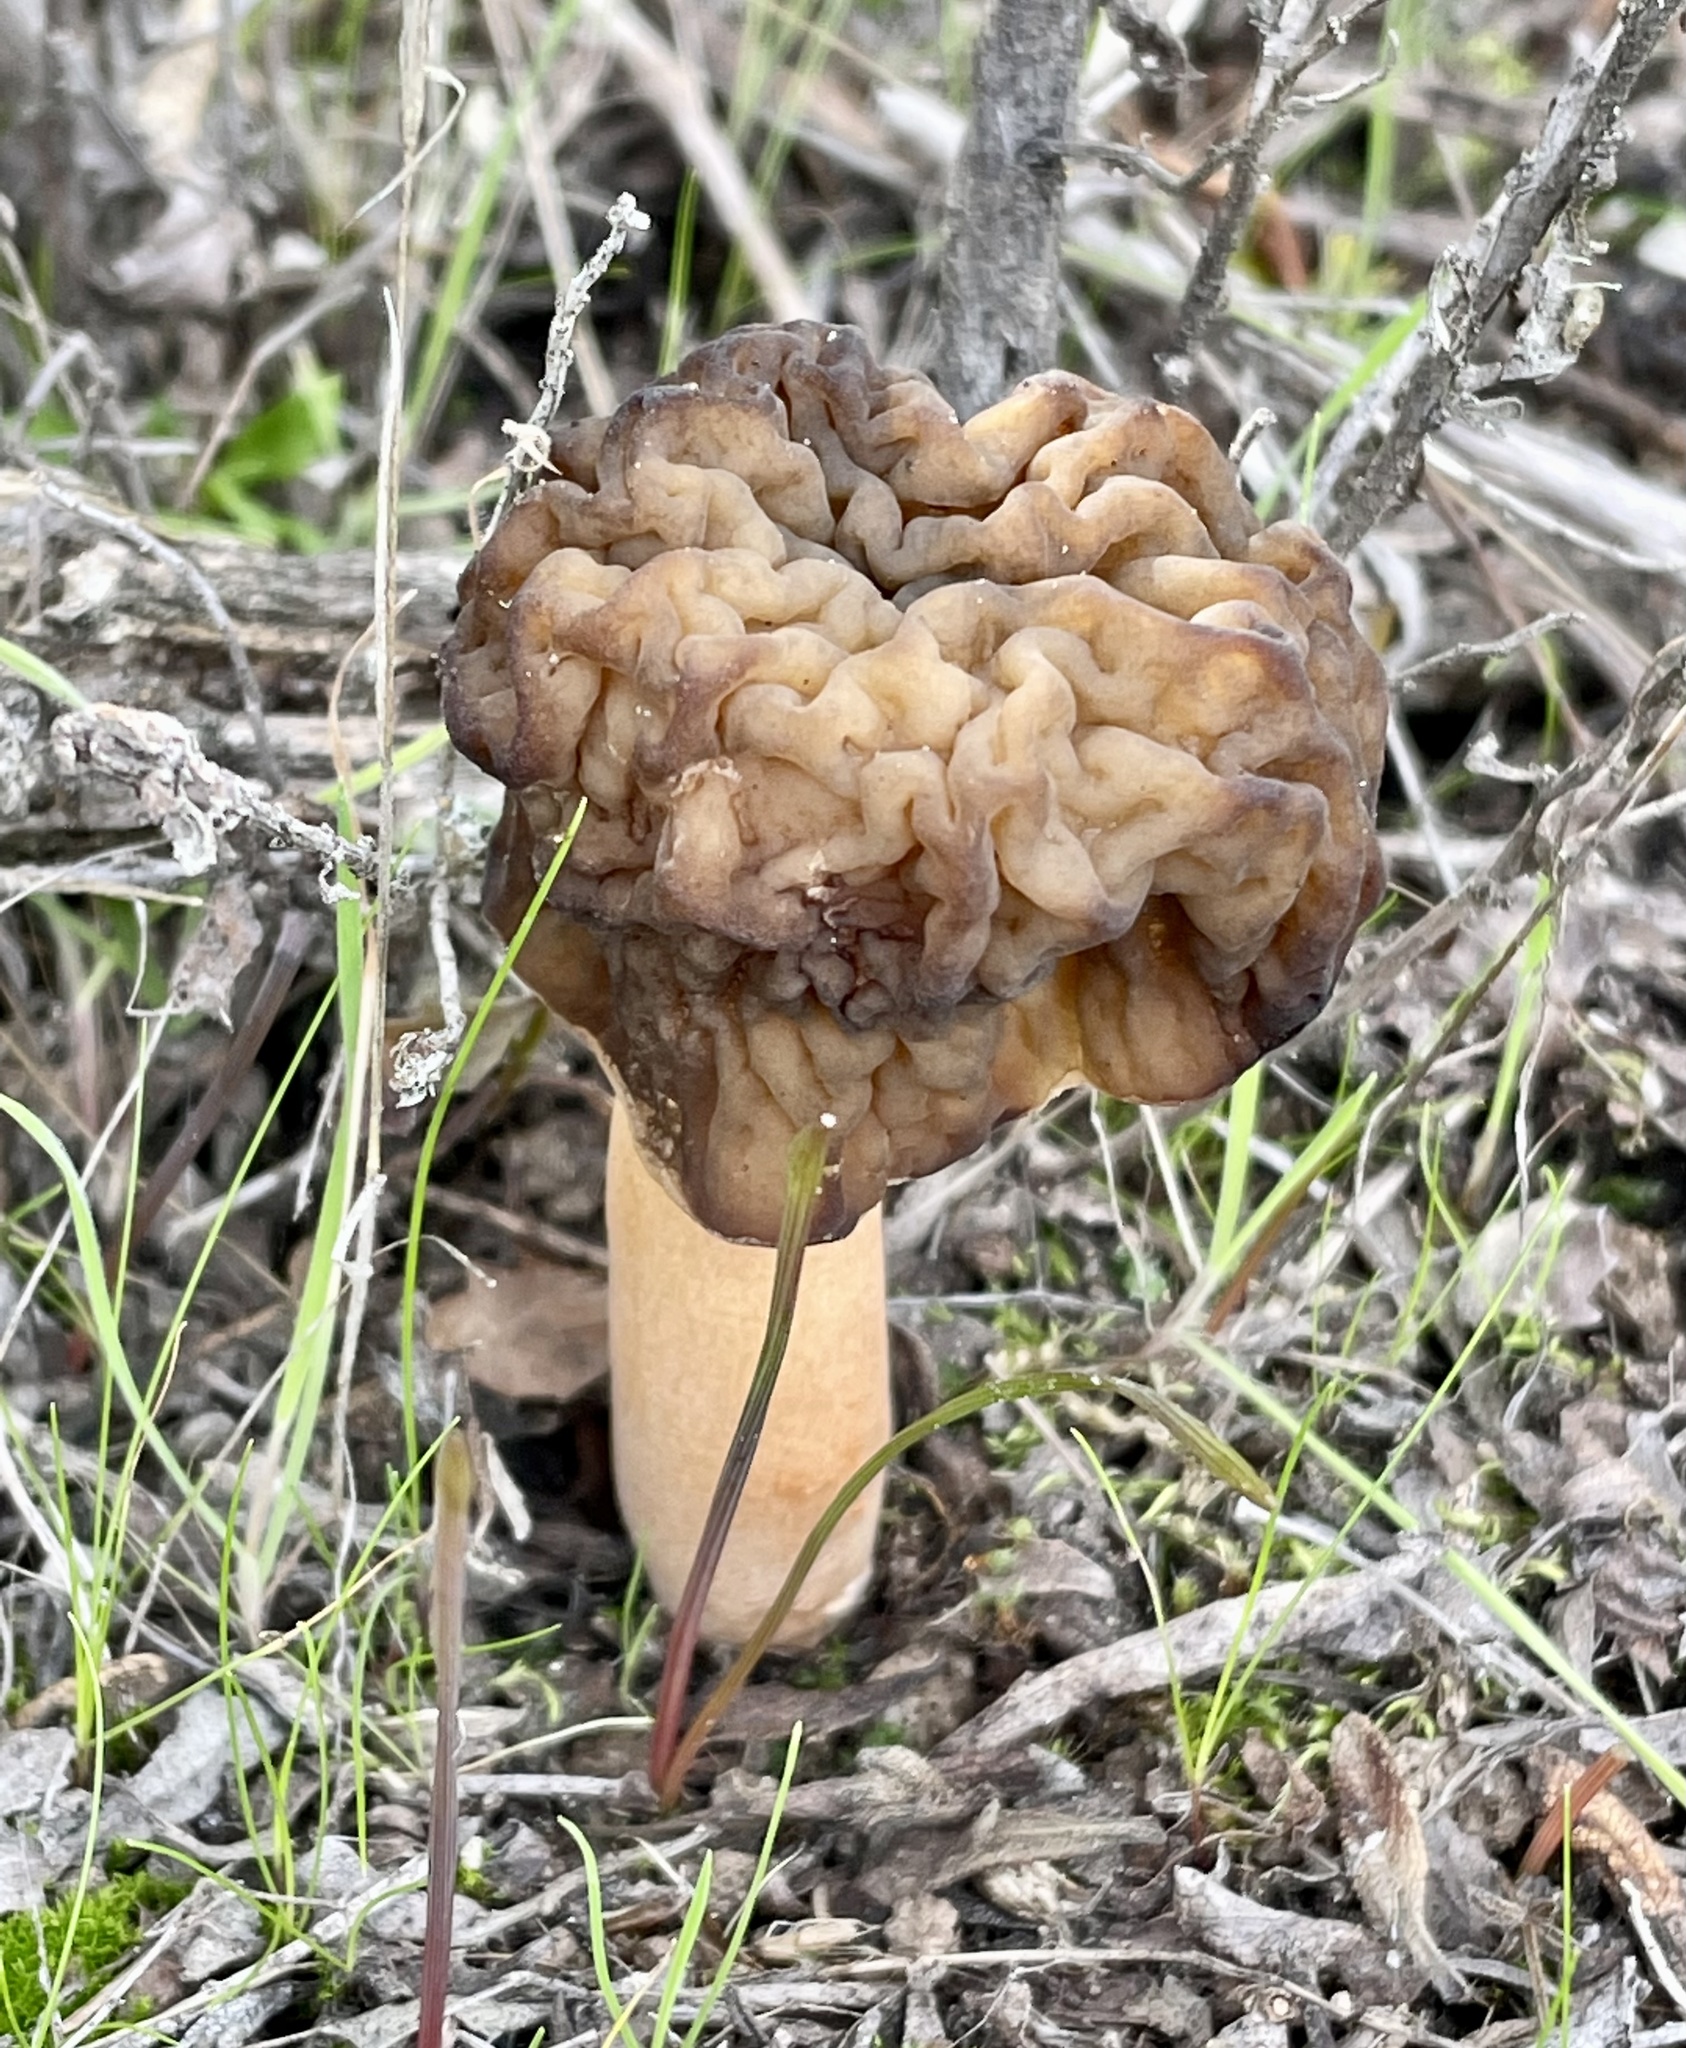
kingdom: Fungi
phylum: Ascomycota
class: Pezizomycetes
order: Pezizales
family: Morchellaceae
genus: Verpa
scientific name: Verpa bohemica
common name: Wrinkled thimble morel
